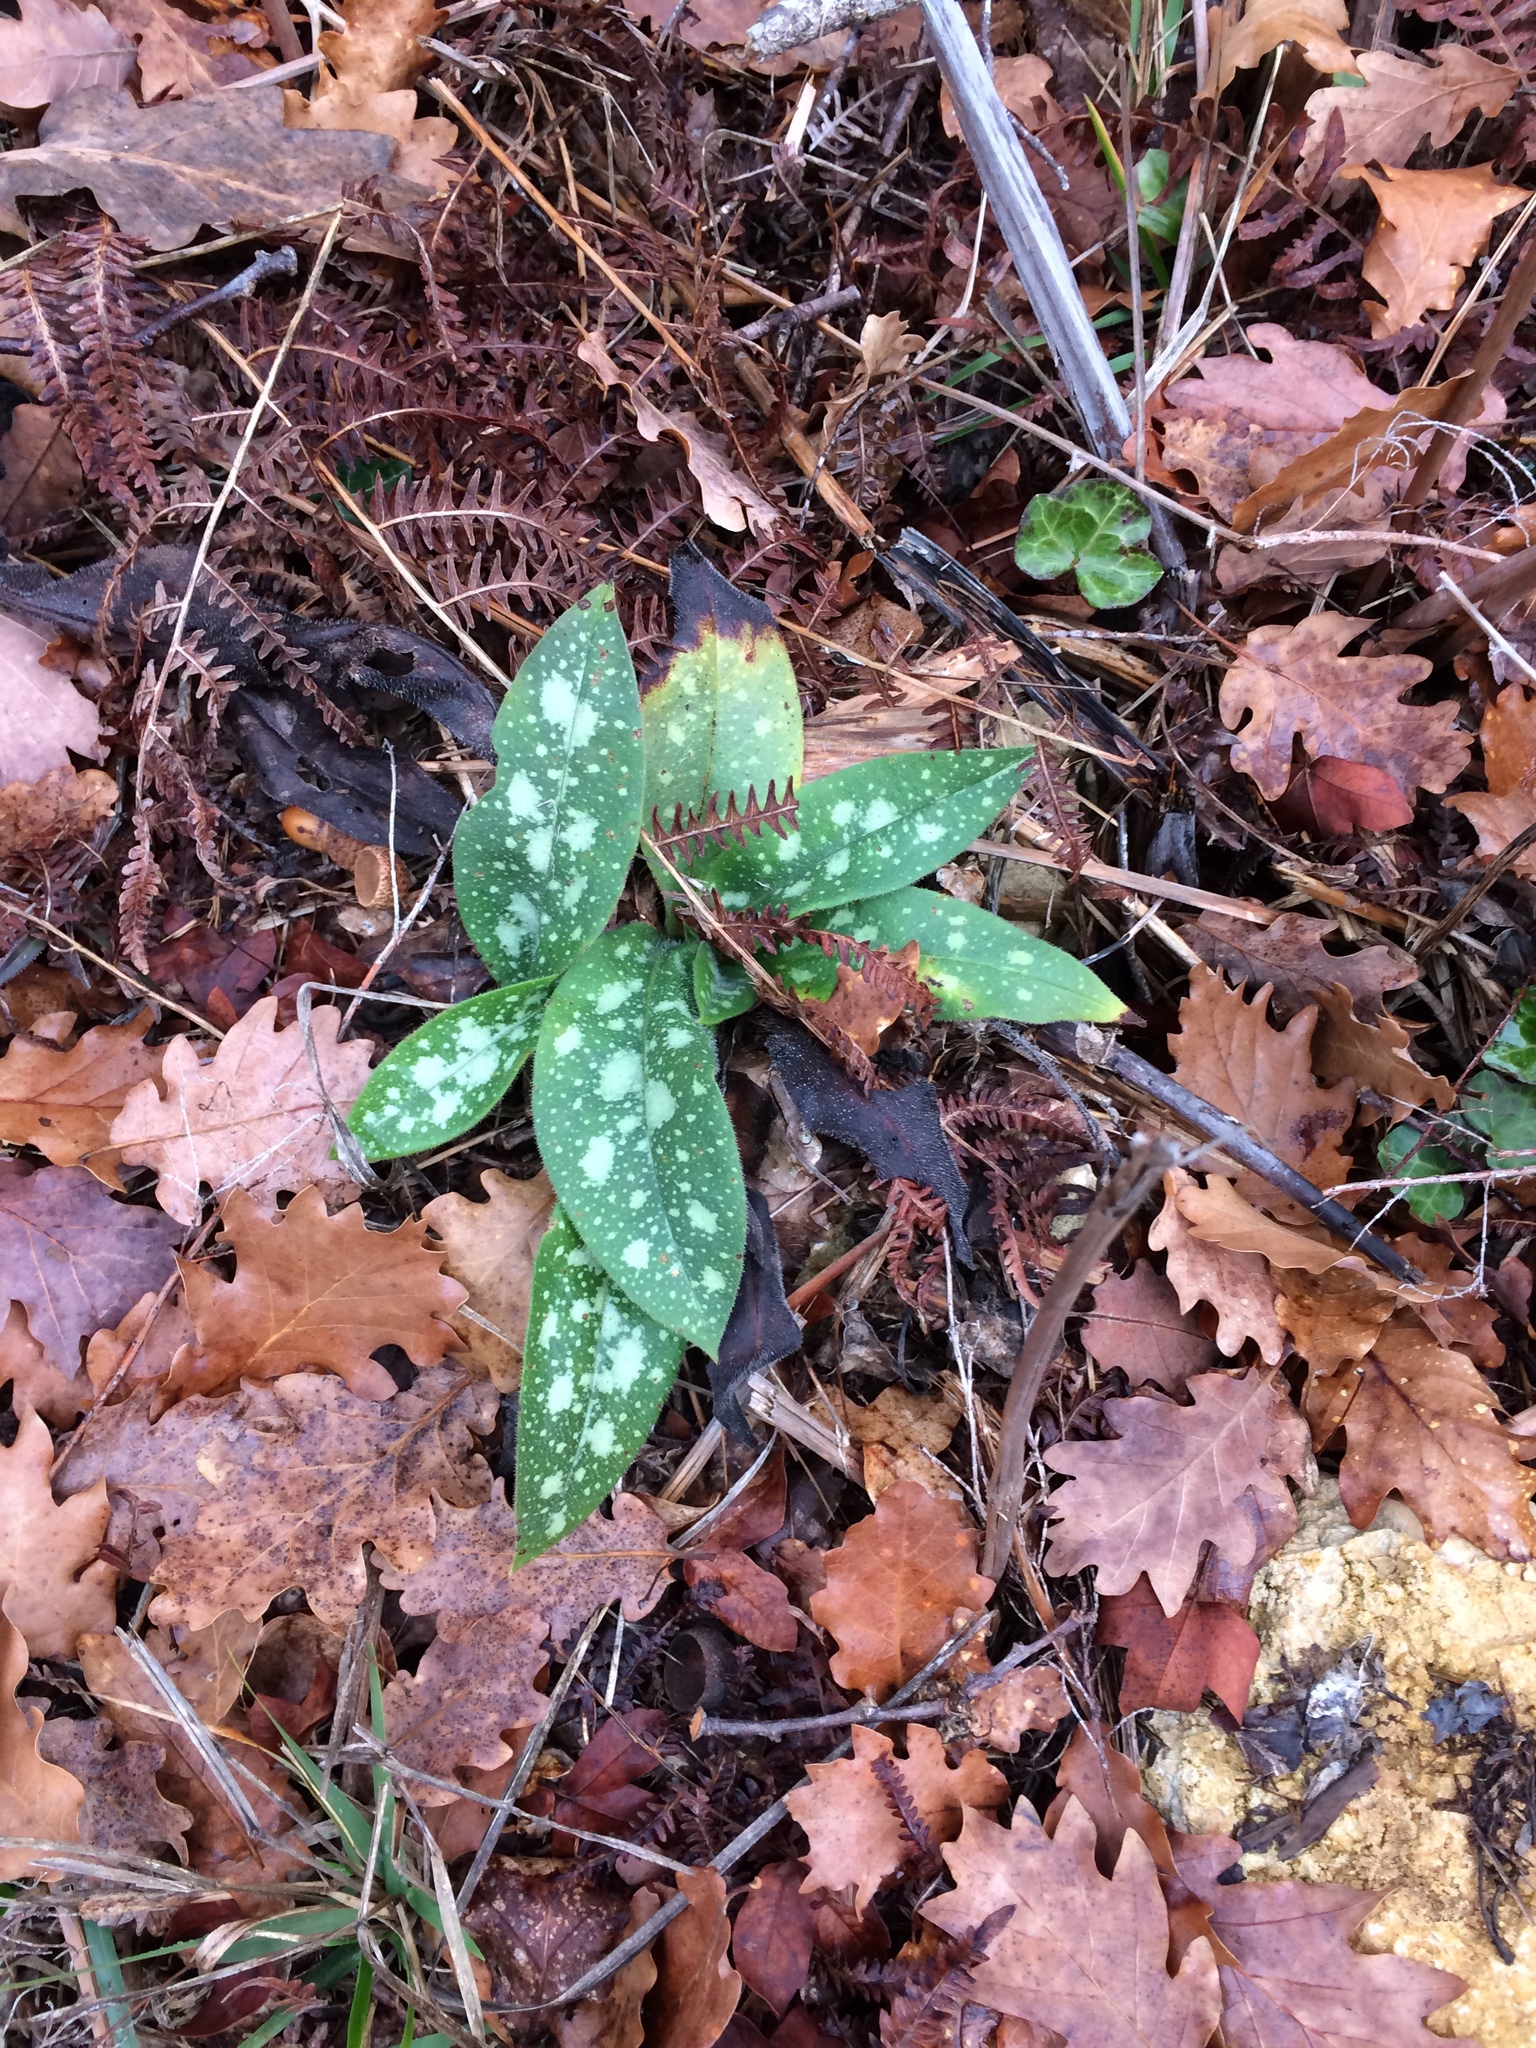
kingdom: Plantae
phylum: Tracheophyta
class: Magnoliopsida
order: Boraginales
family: Boraginaceae
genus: Pulmonaria
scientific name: Pulmonaria officinalis
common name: Lungwort
